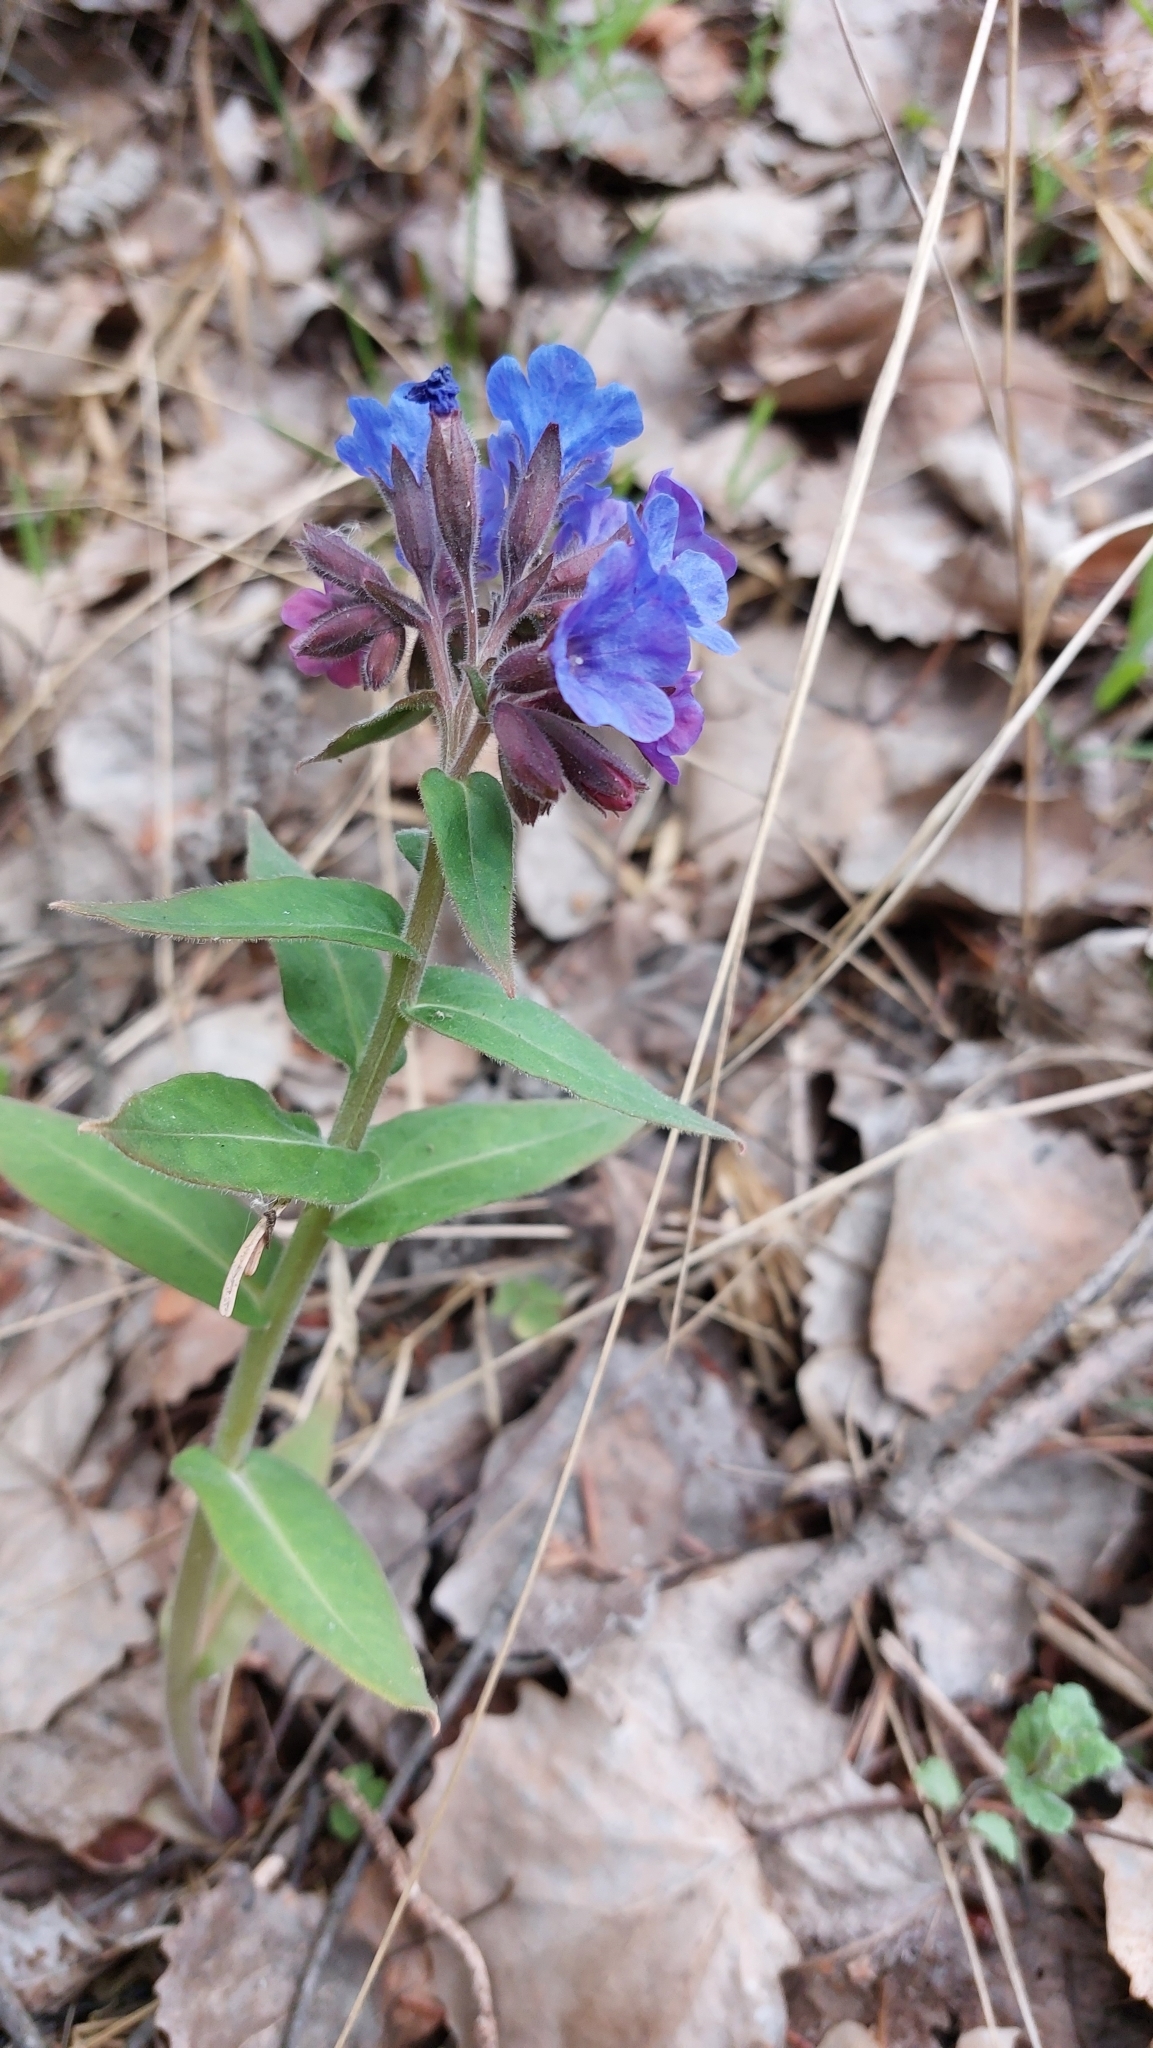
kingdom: Plantae
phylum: Tracheophyta
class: Magnoliopsida
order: Boraginales
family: Boraginaceae
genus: Pulmonaria
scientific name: Pulmonaria mollis
